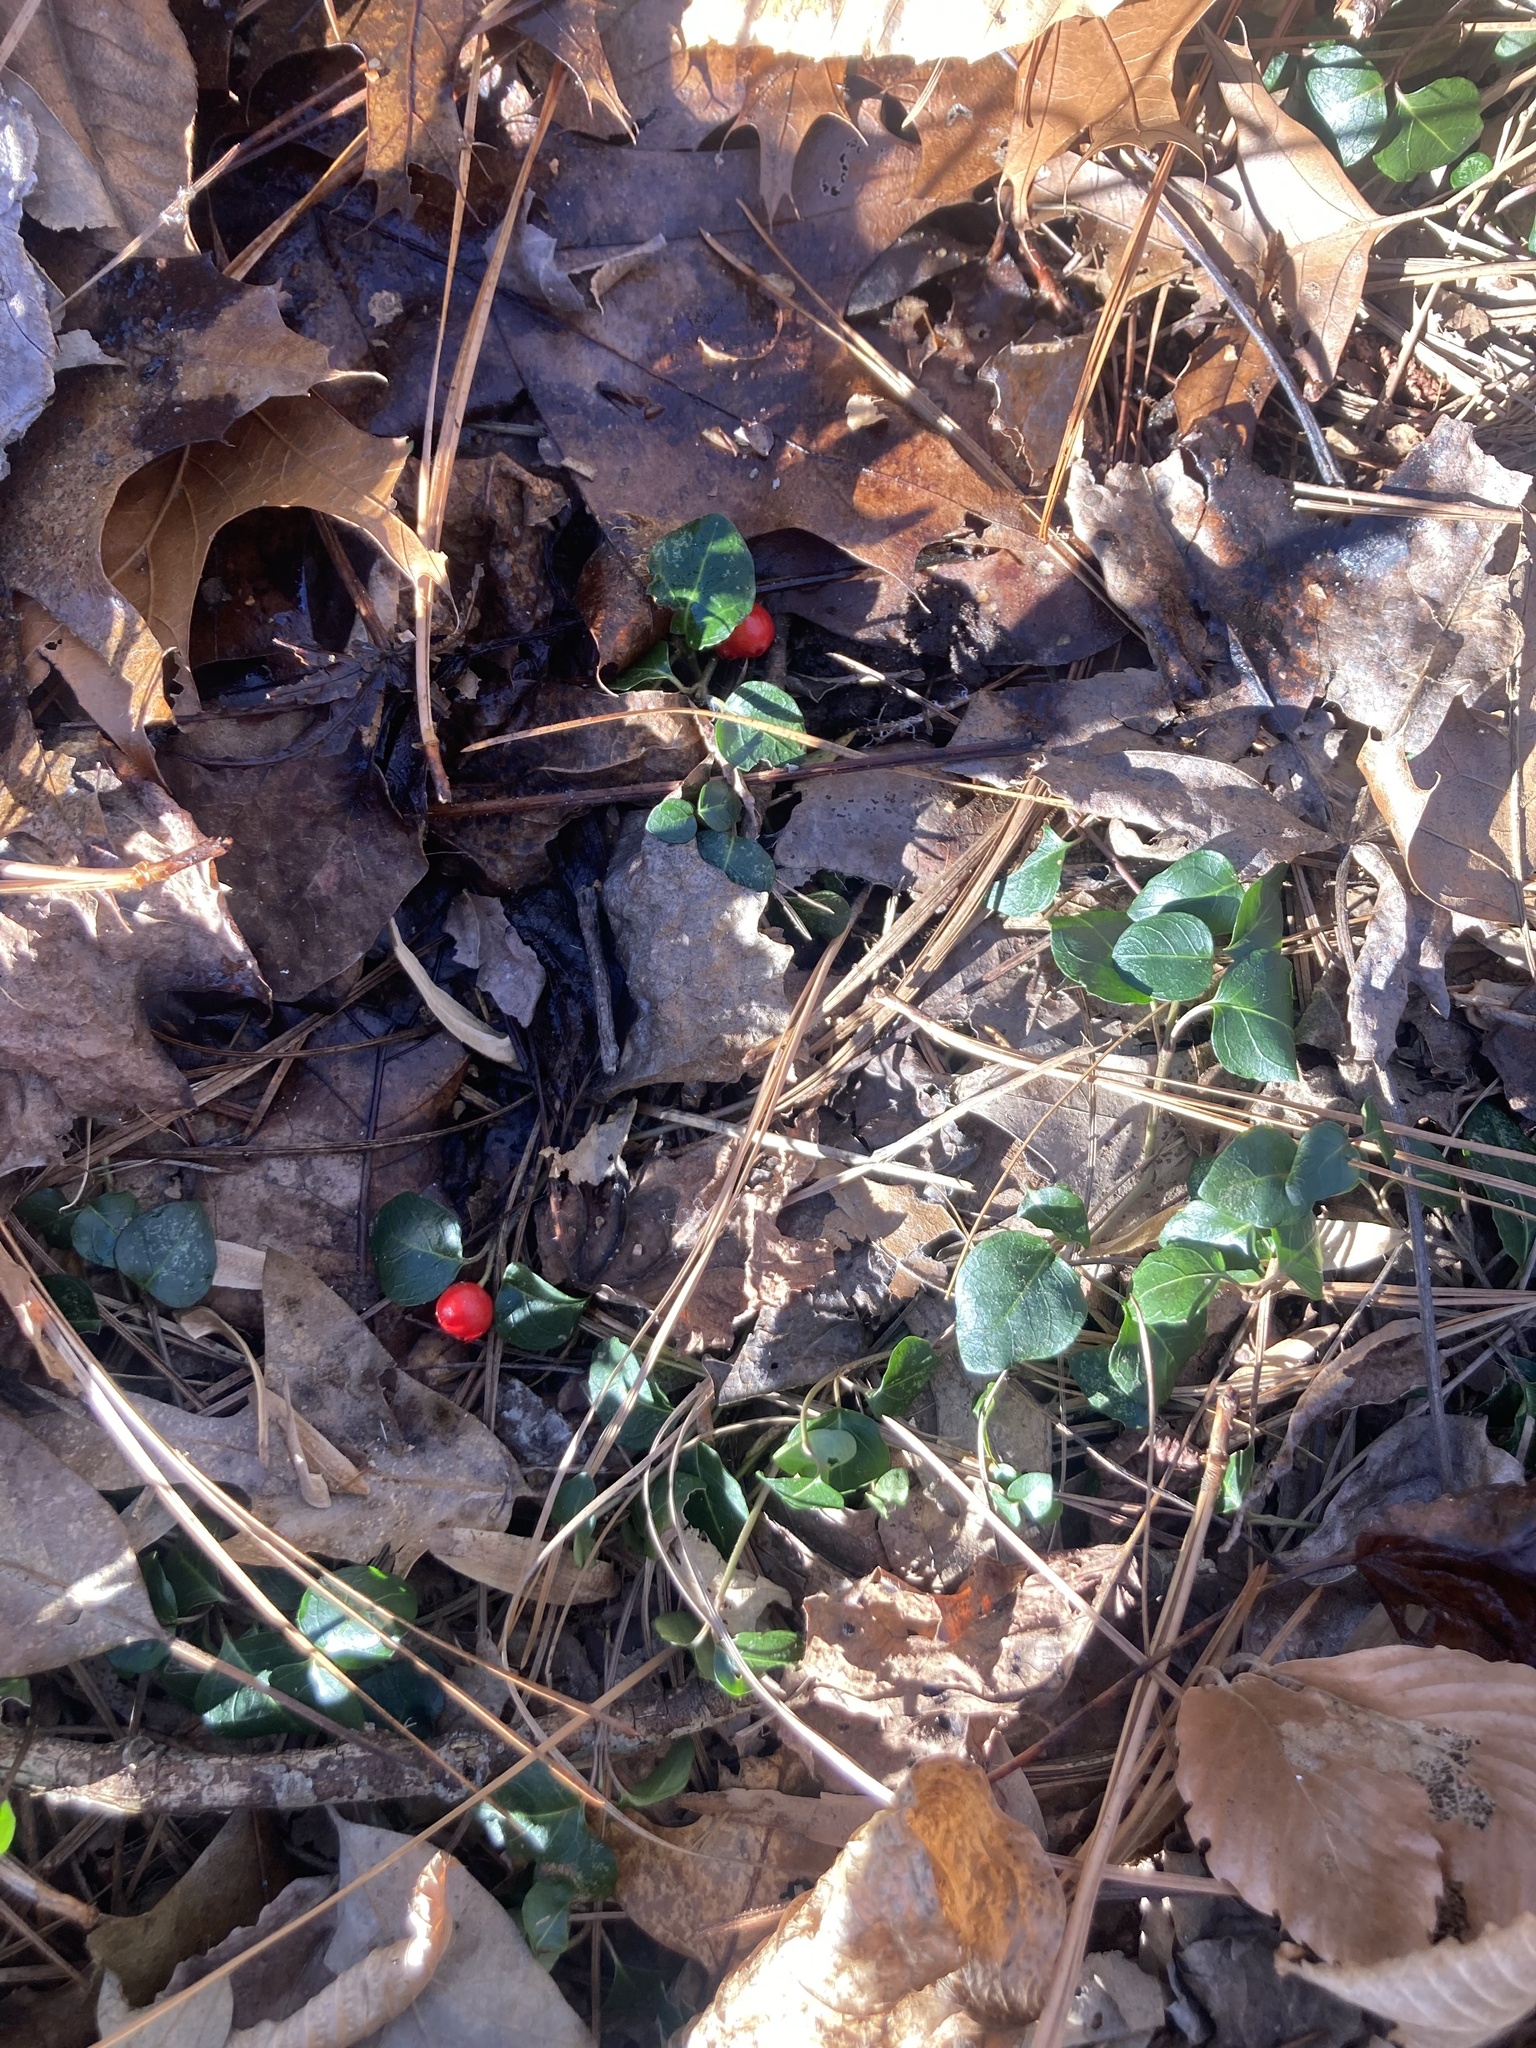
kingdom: Plantae
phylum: Tracheophyta
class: Magnoliopsida
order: Gentianales
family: Rubiaceae
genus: Mitchella
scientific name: Mitchella repens
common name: Partridge-berry
